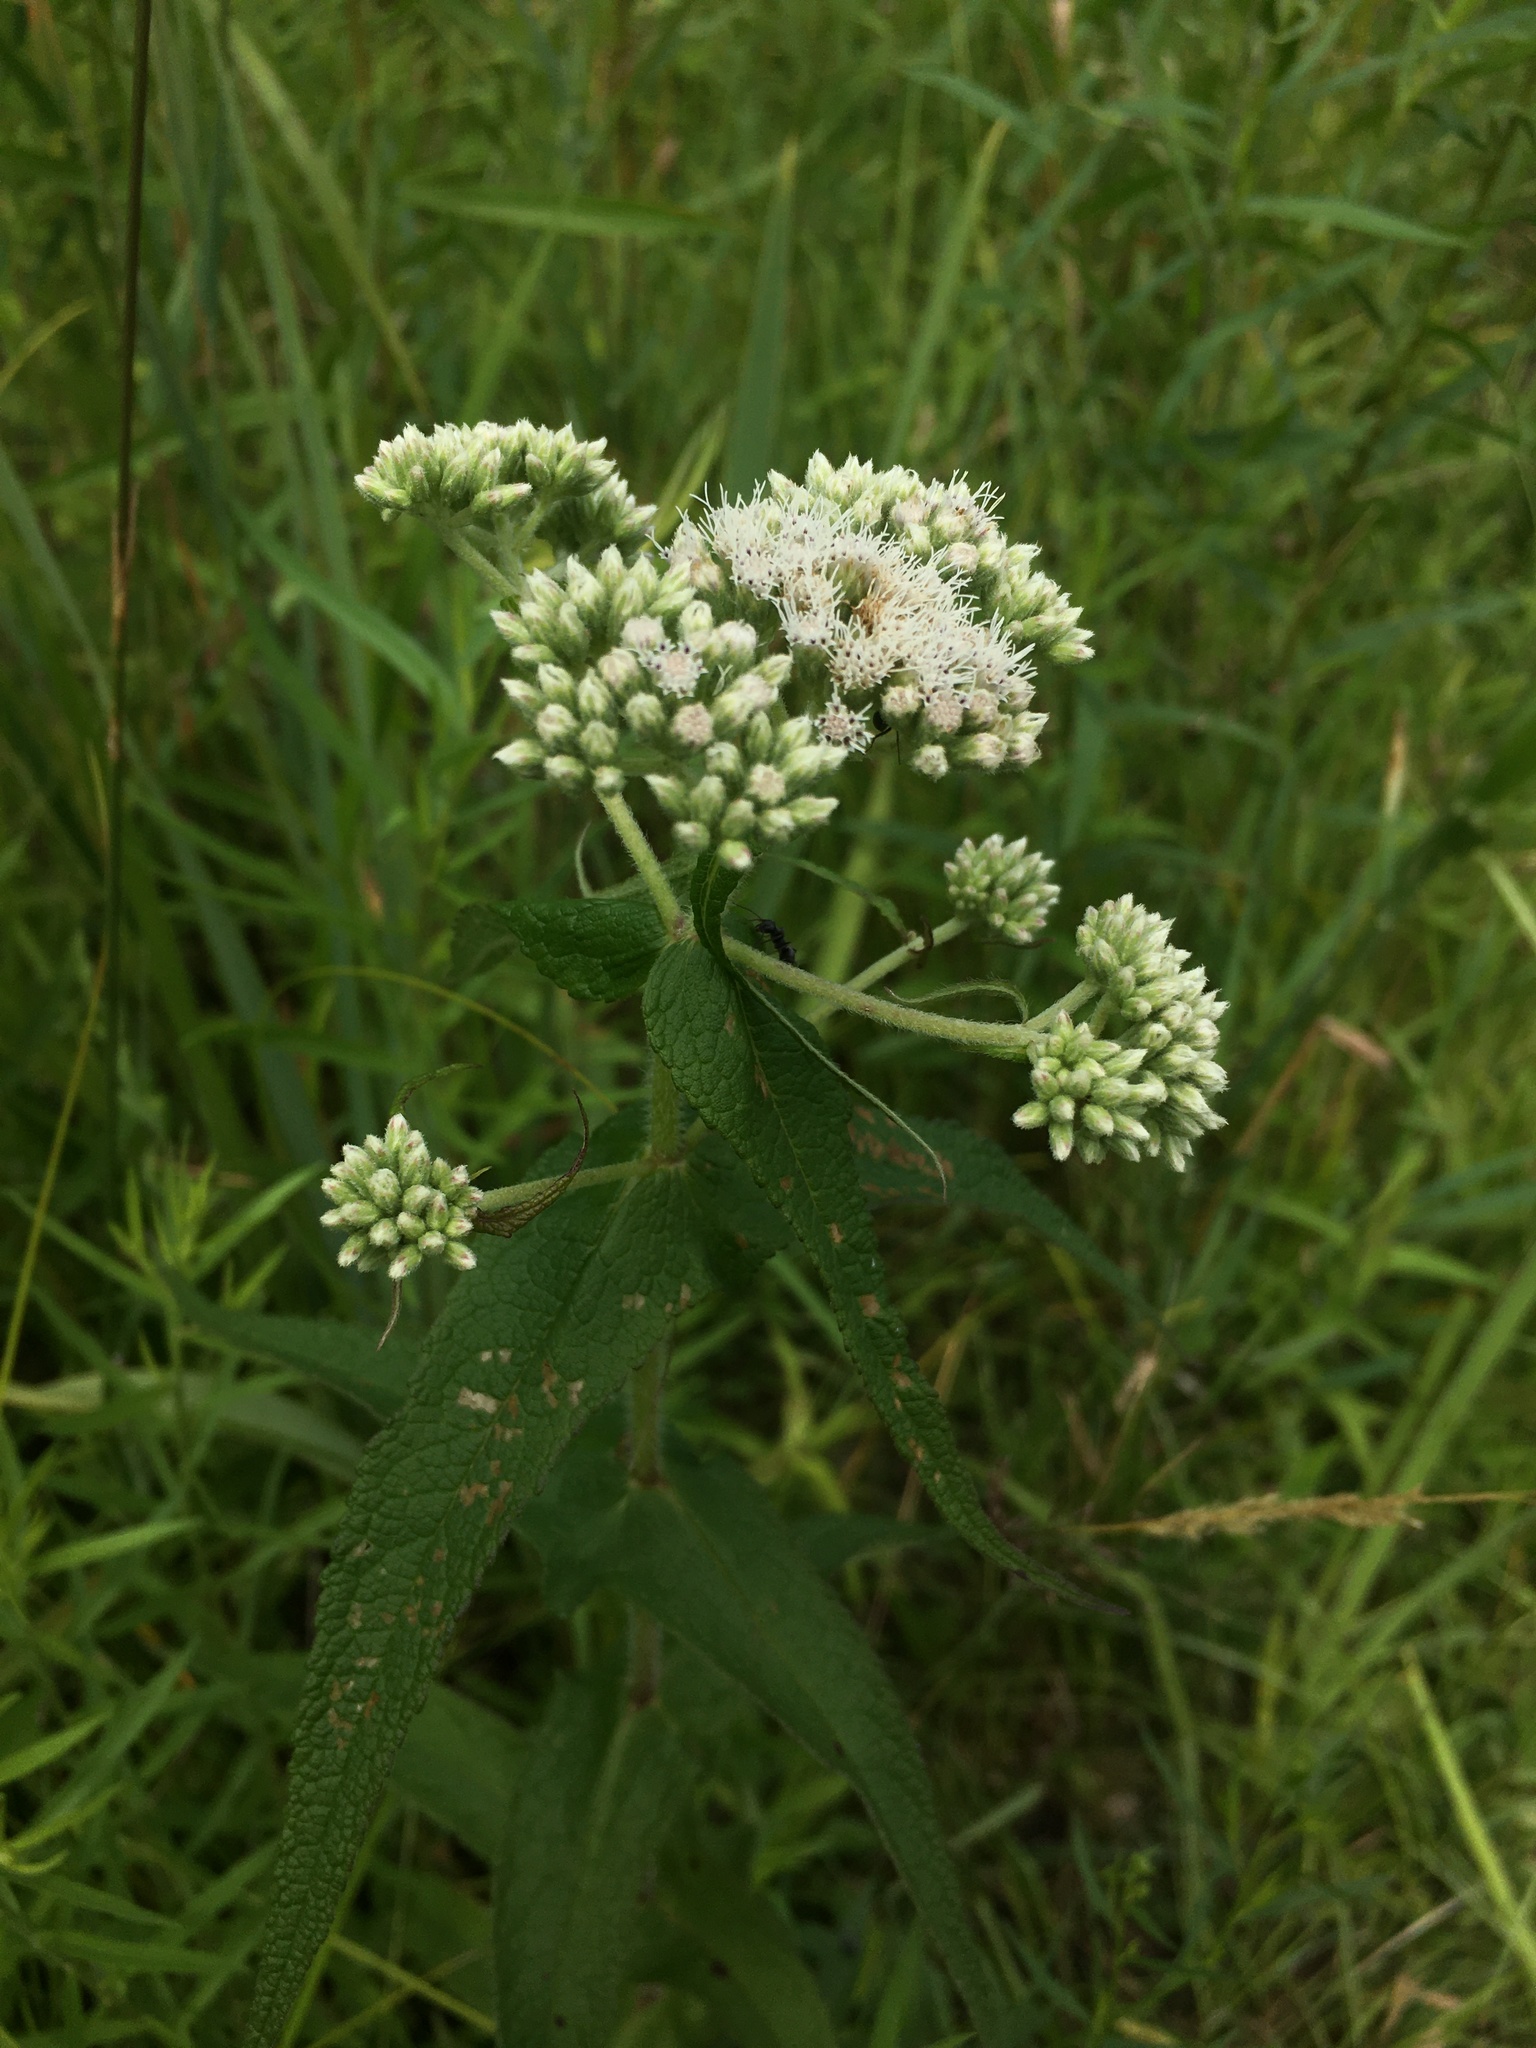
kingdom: Plantae
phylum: Tracheophyta
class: Magnoliopsida
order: Asterales
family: Asteraceae
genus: Eupatorium
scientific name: Eupatorium perfoliatum
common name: Boneset
